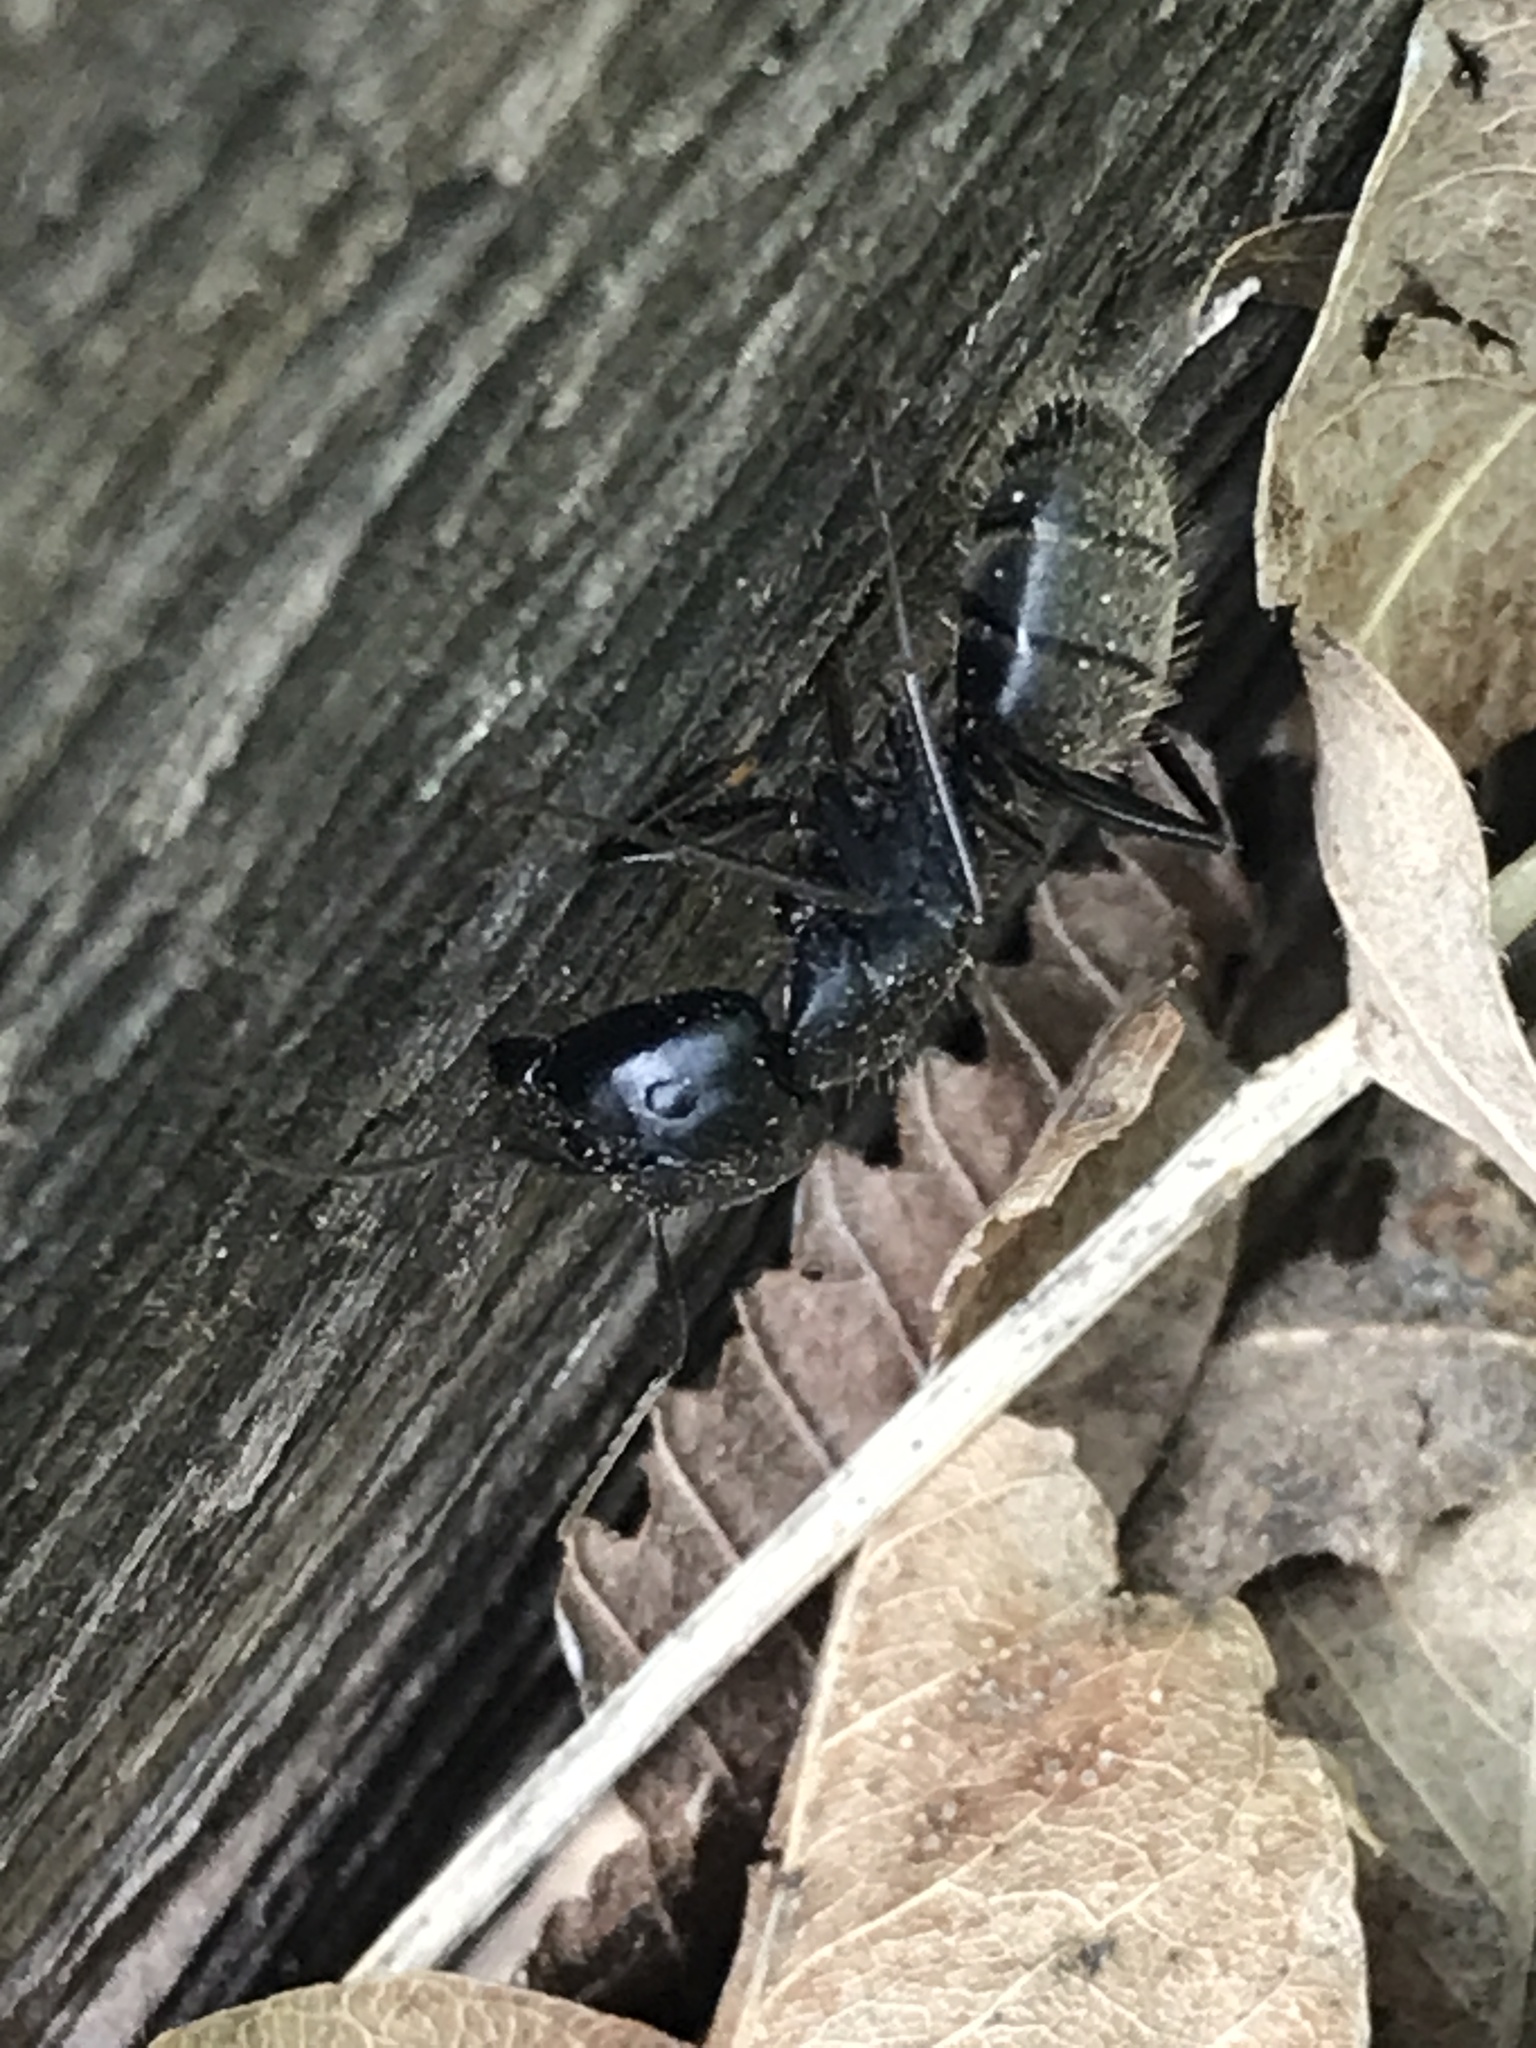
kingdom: Animalia
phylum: Arthropoda
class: Insecta
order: Hymenoptera
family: Formicidae
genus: Camponotus
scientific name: Camponotus pennsylvanicus
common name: Black carpenter ant
